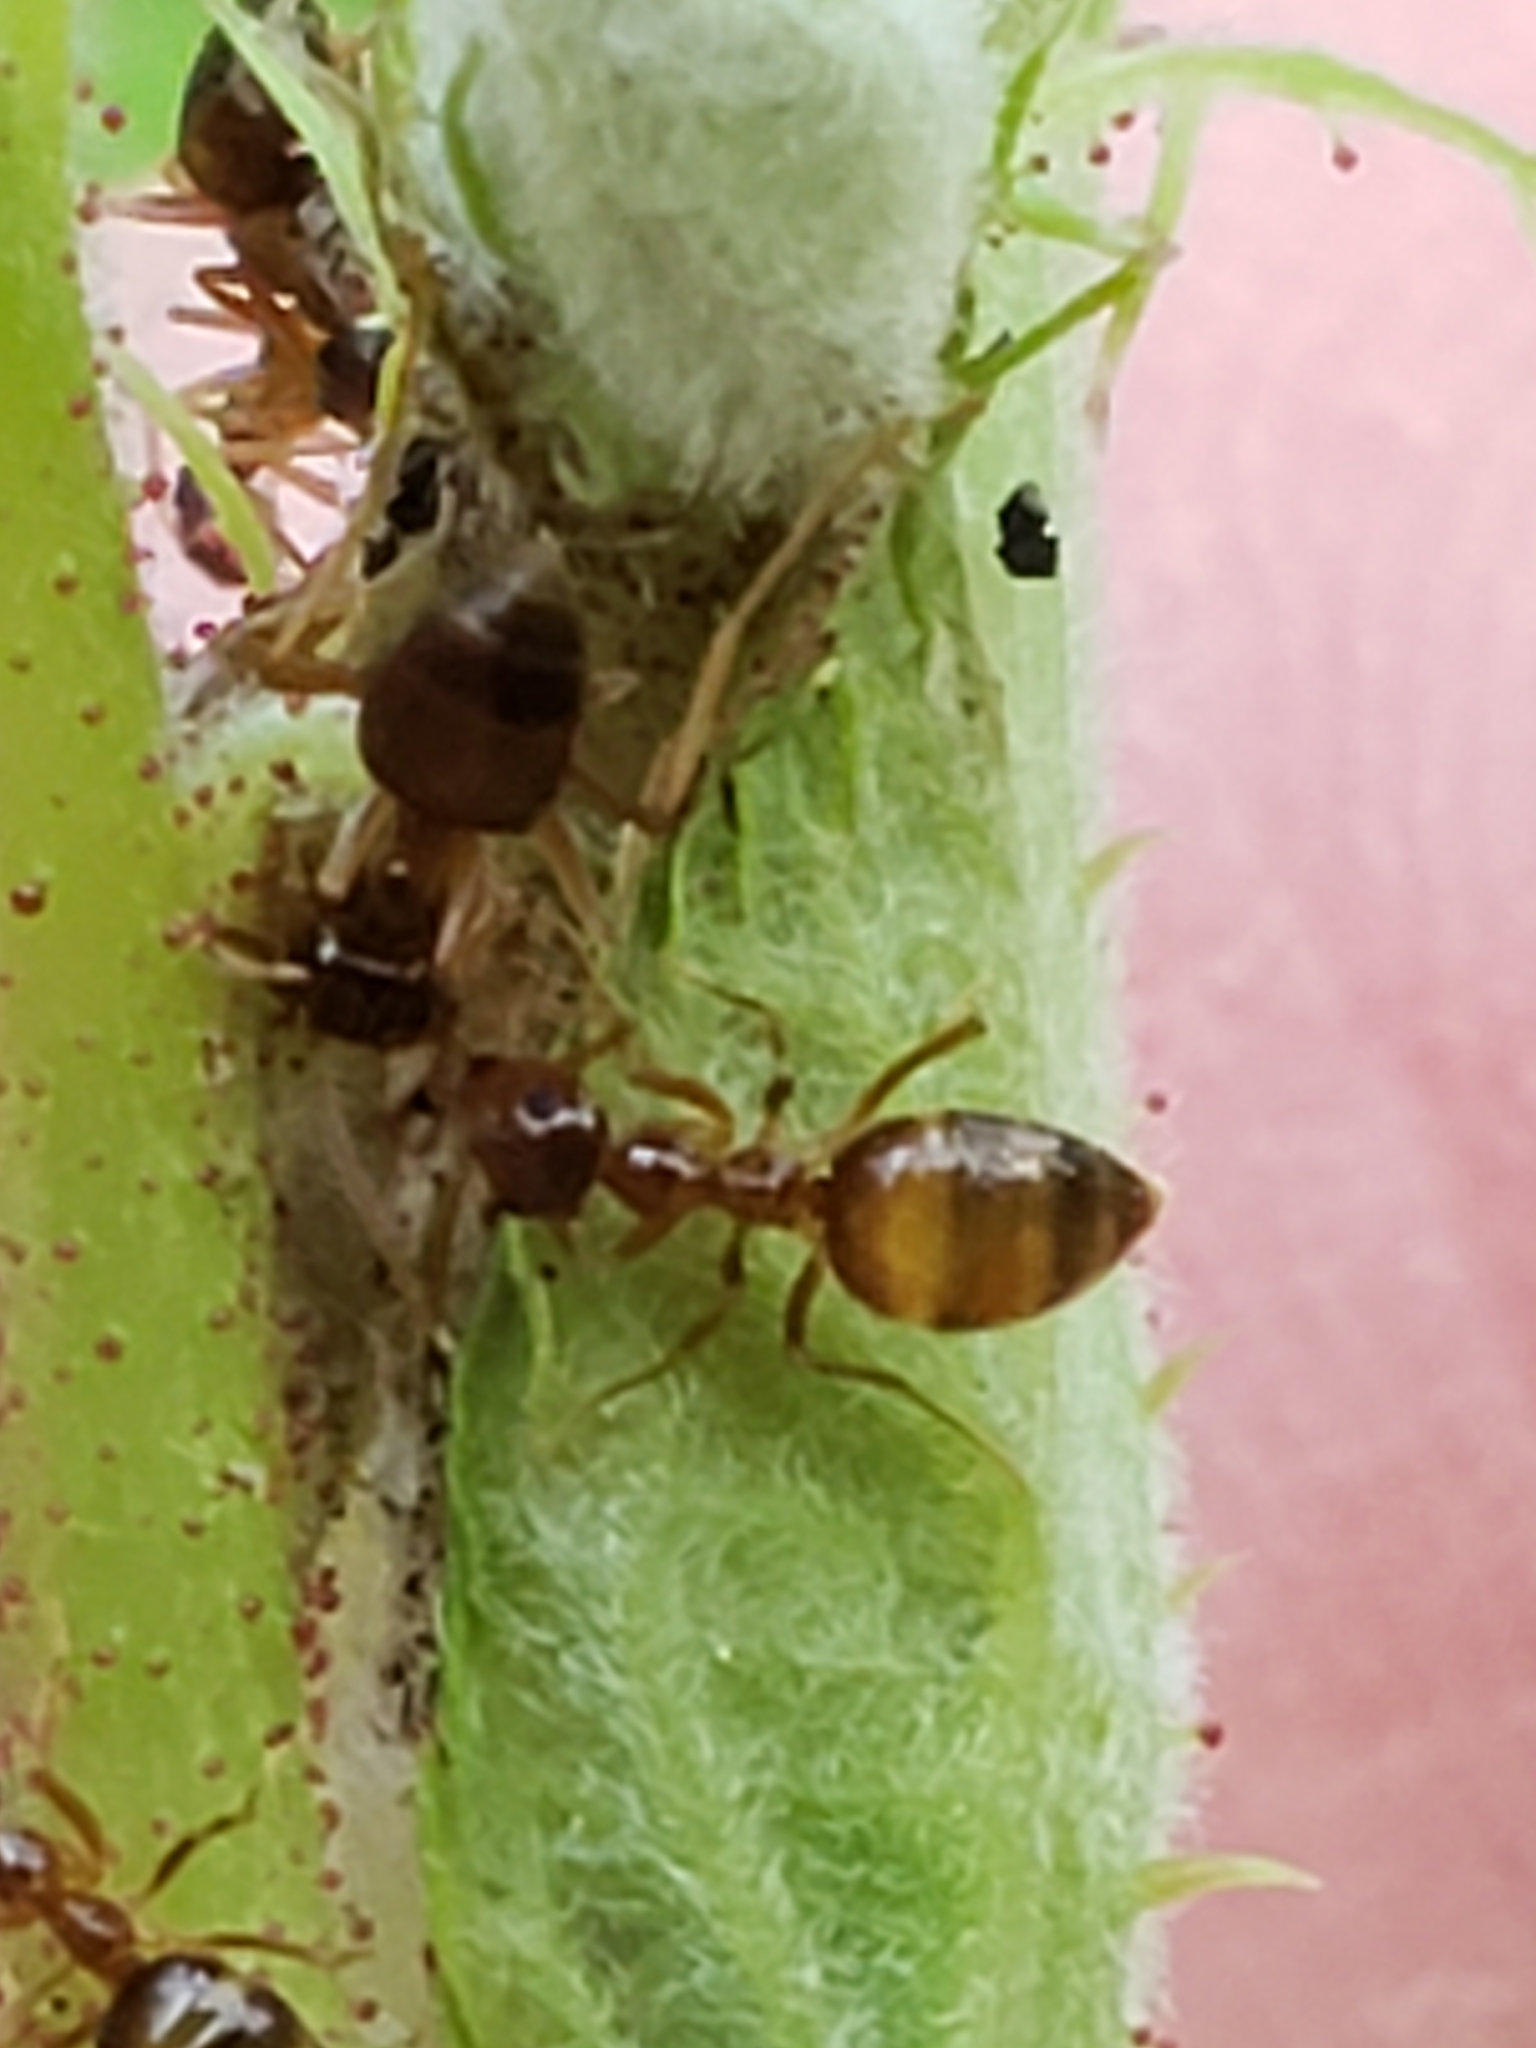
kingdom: Animalia
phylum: Arthropoda
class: Insecta
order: Hymenoptera
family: Formicidae
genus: Prenolepis
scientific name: Prenolepis imparis
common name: Small honey ant
